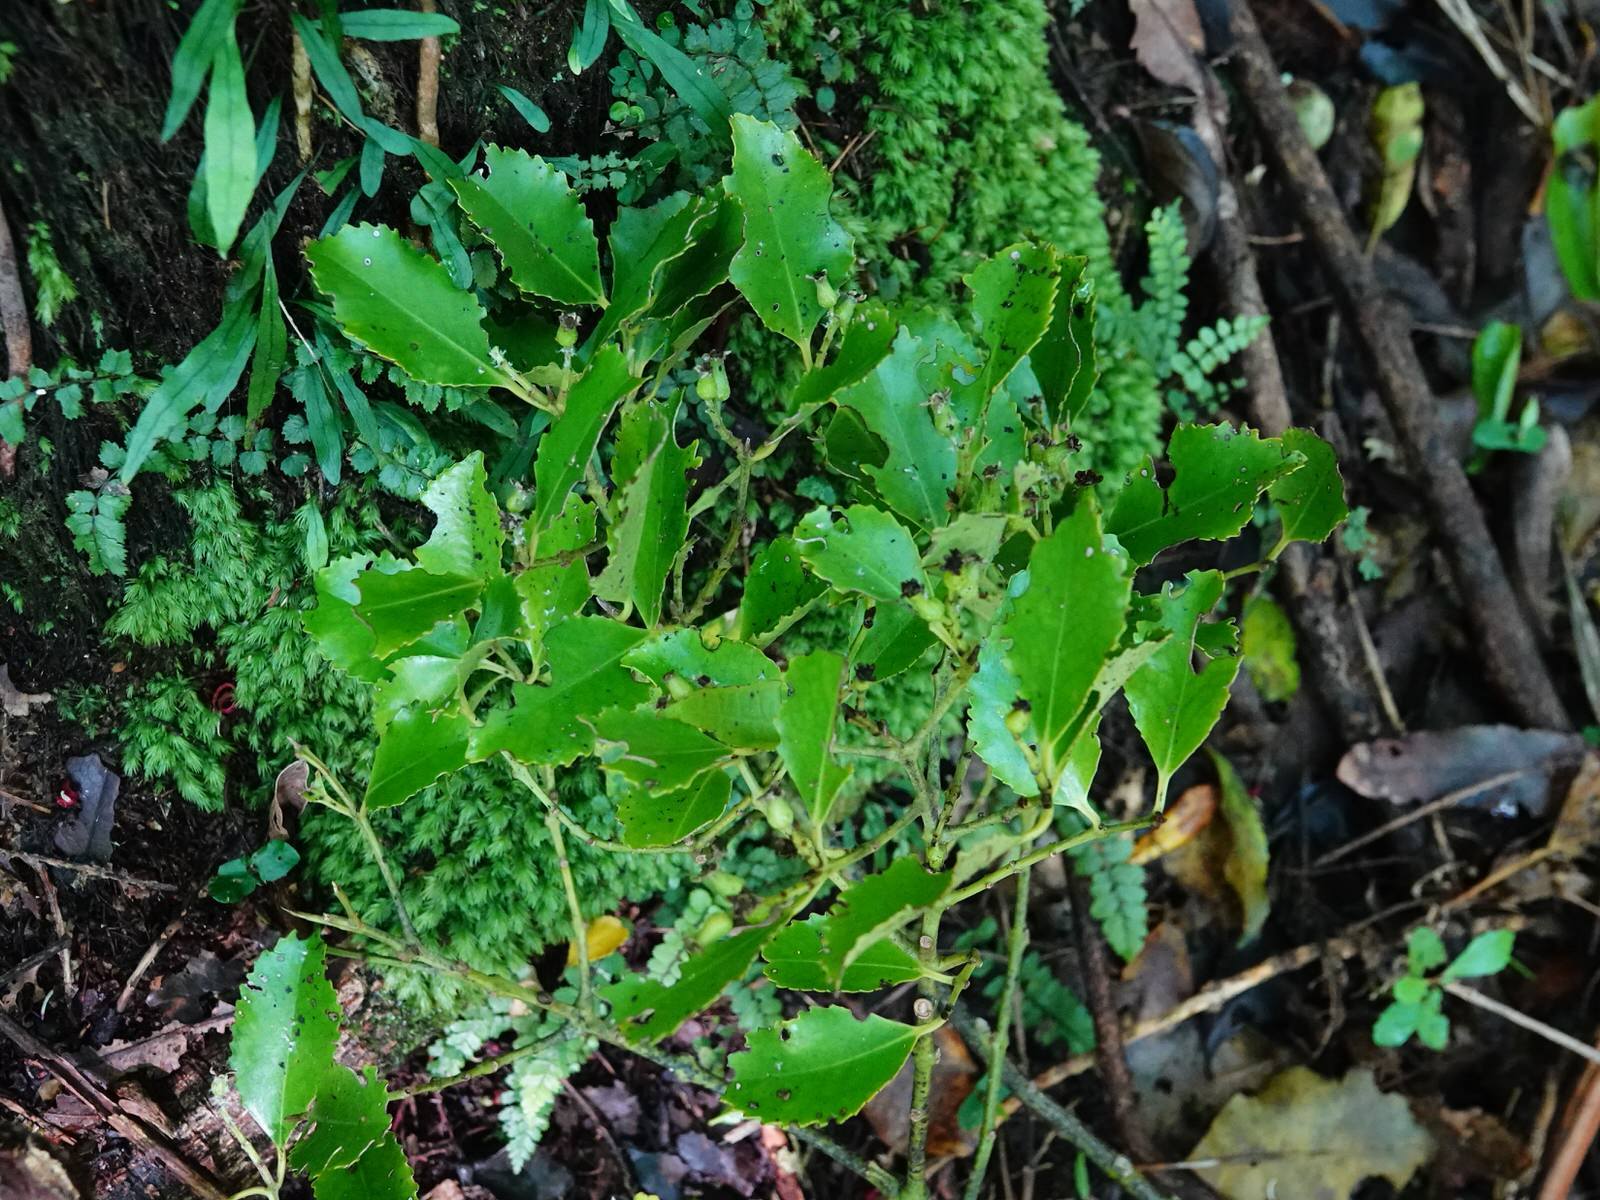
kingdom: Plantae
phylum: Tracheophyta
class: Magnoliopsida
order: Laurales
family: Atherospermataceae
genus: Laurelia
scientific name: Laurelia novae-zelandiae
